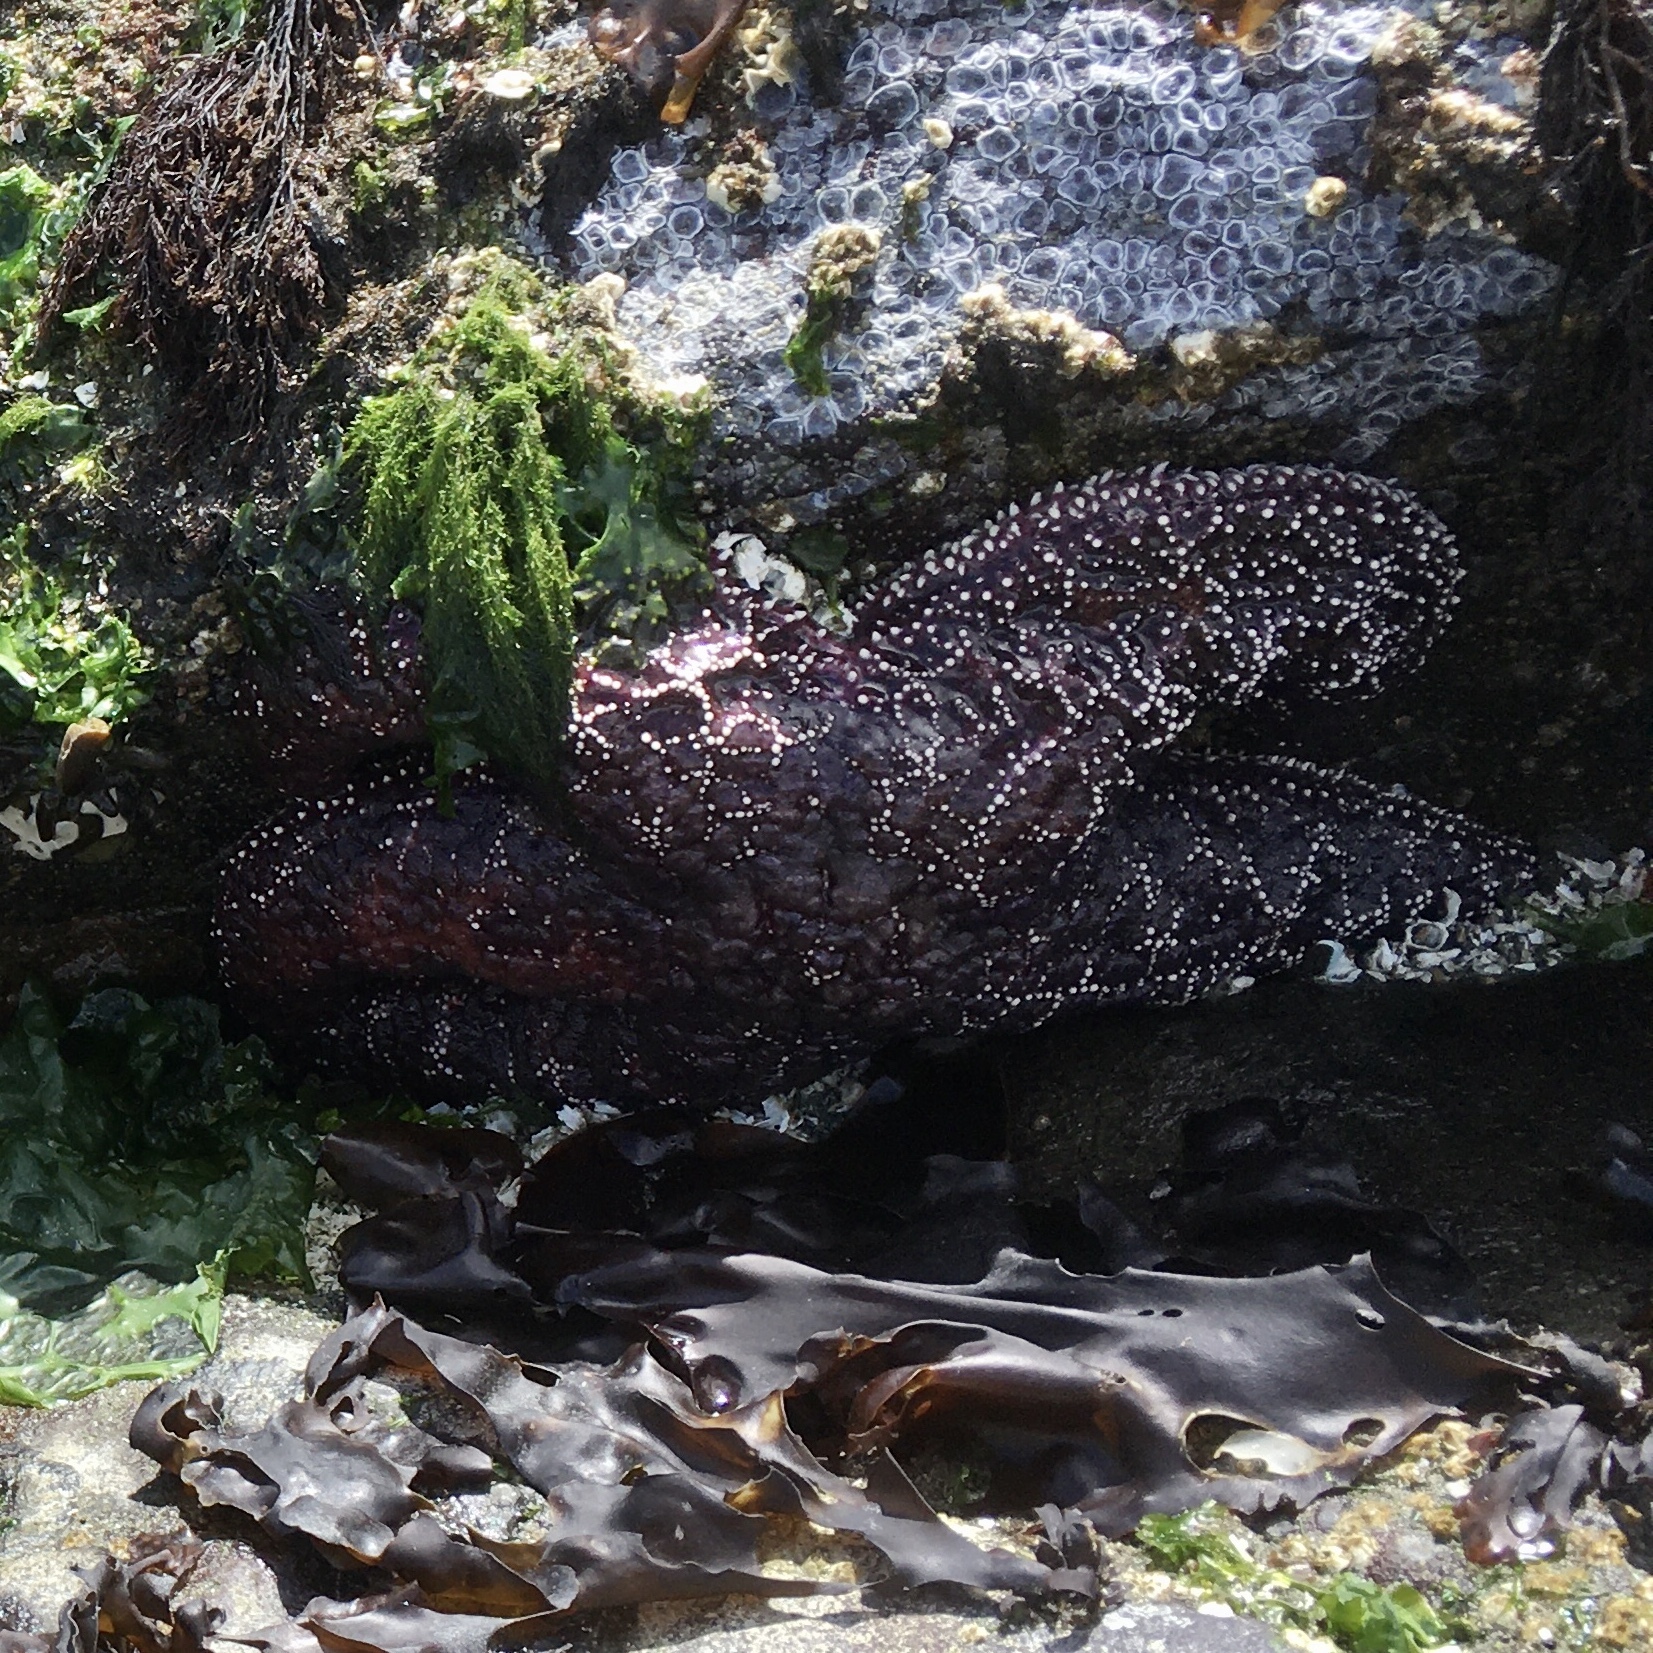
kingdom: Animalia
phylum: Echinodermata
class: Asteroidea
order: Forcipulatida
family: Asteriidae
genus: Pisaster
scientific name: Pisaster ochraceus
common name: Ochre stars
